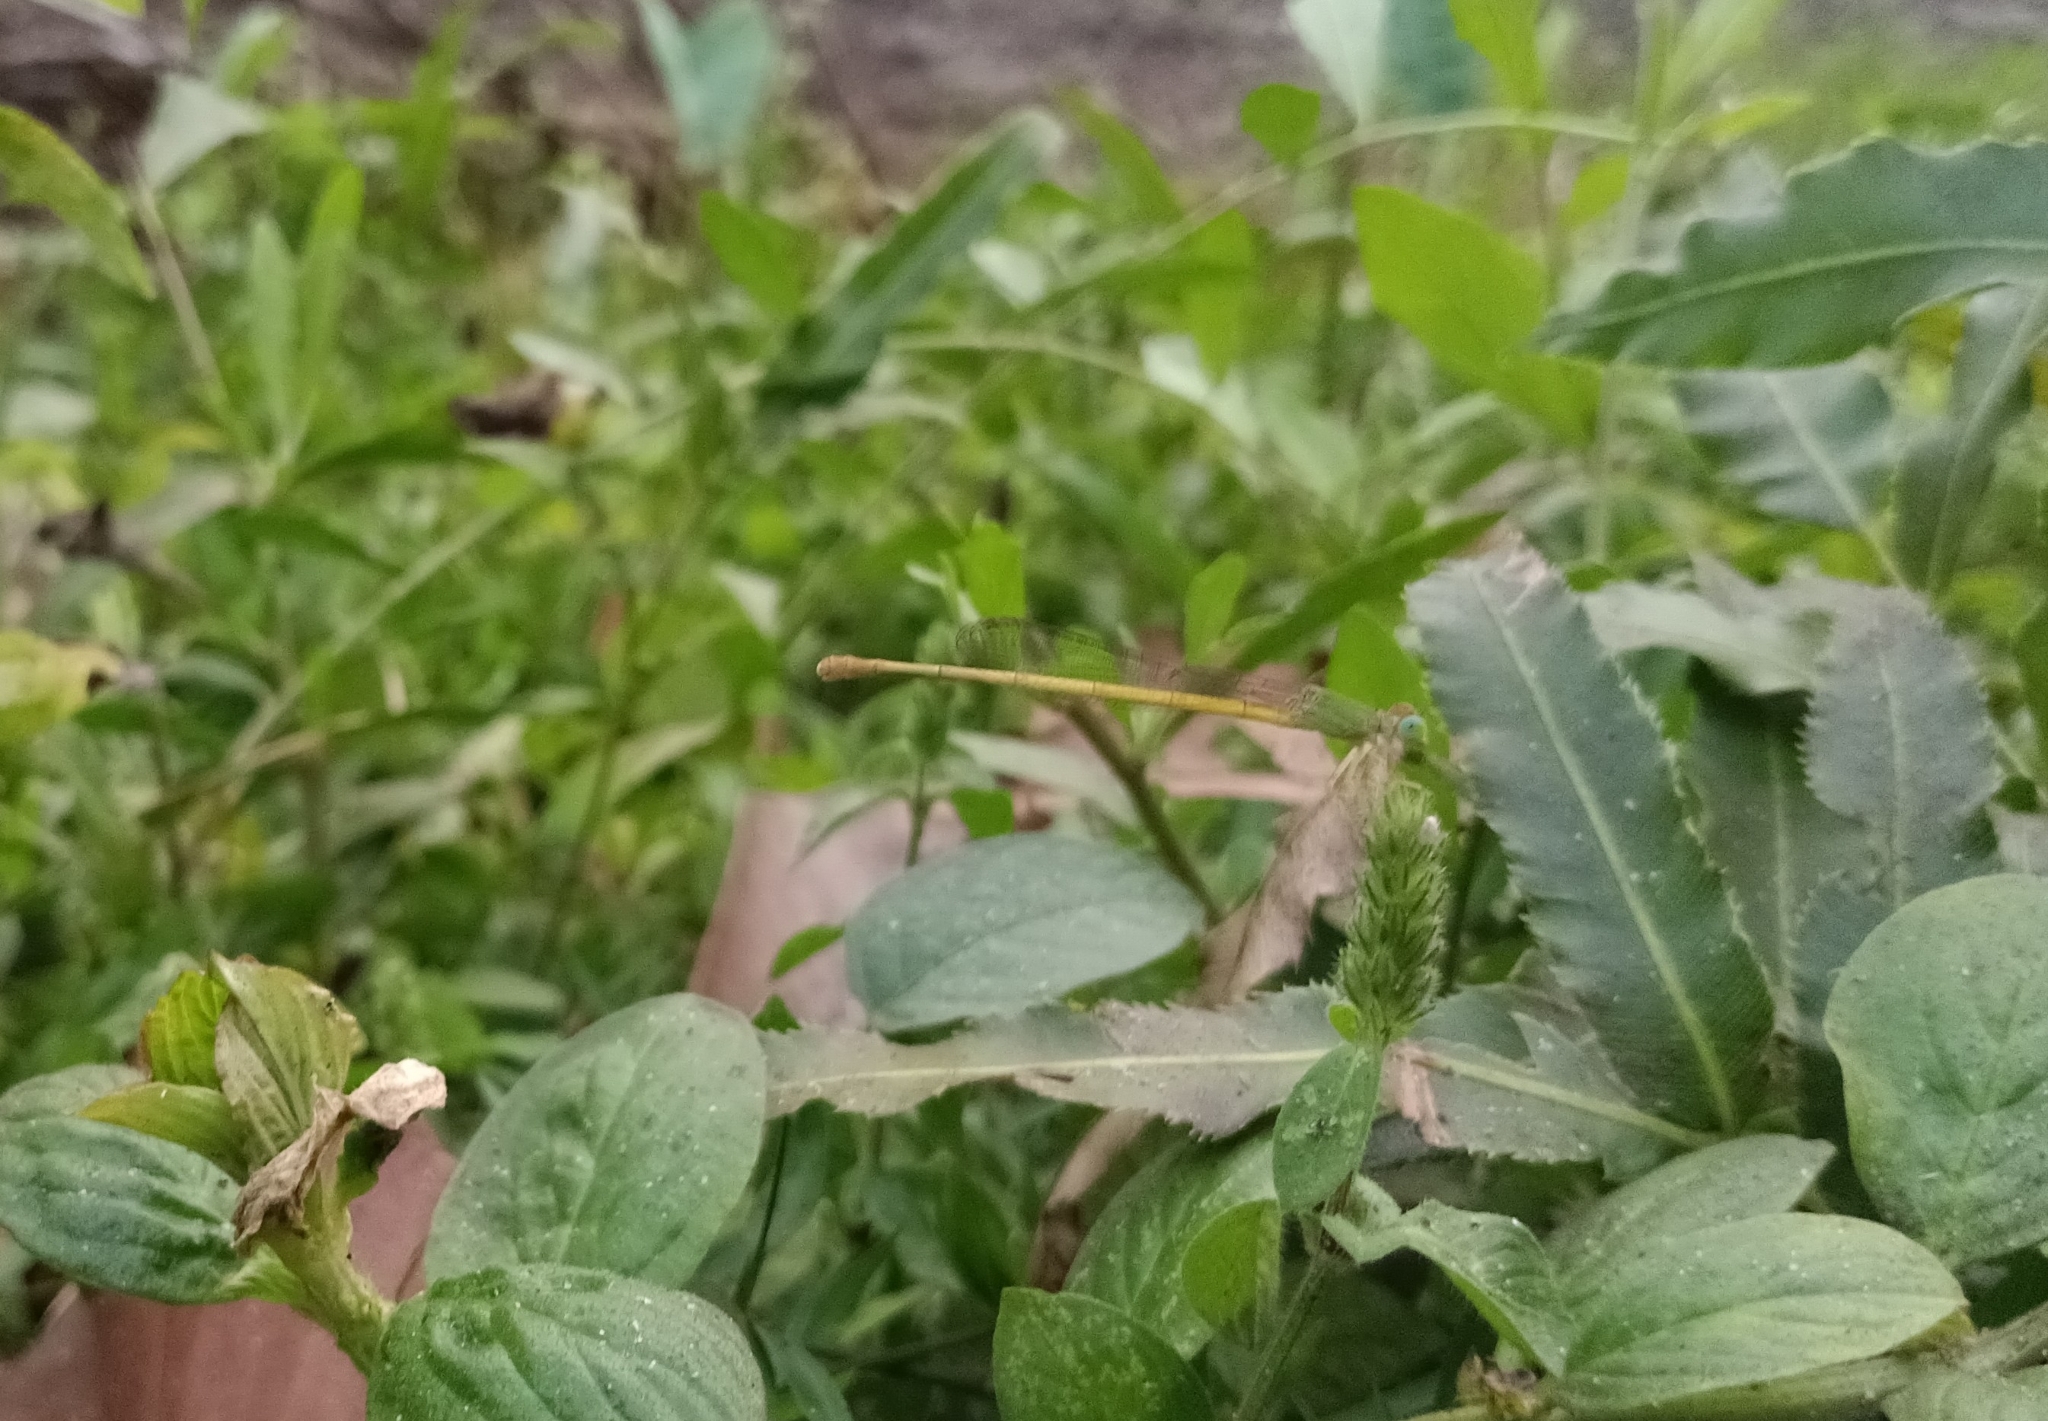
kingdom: Animalia
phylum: Arthropoda
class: Insecta
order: Odonata
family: Coenagrionidae
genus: Ceriagrion
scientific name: Ceriagrion coromandelianum
